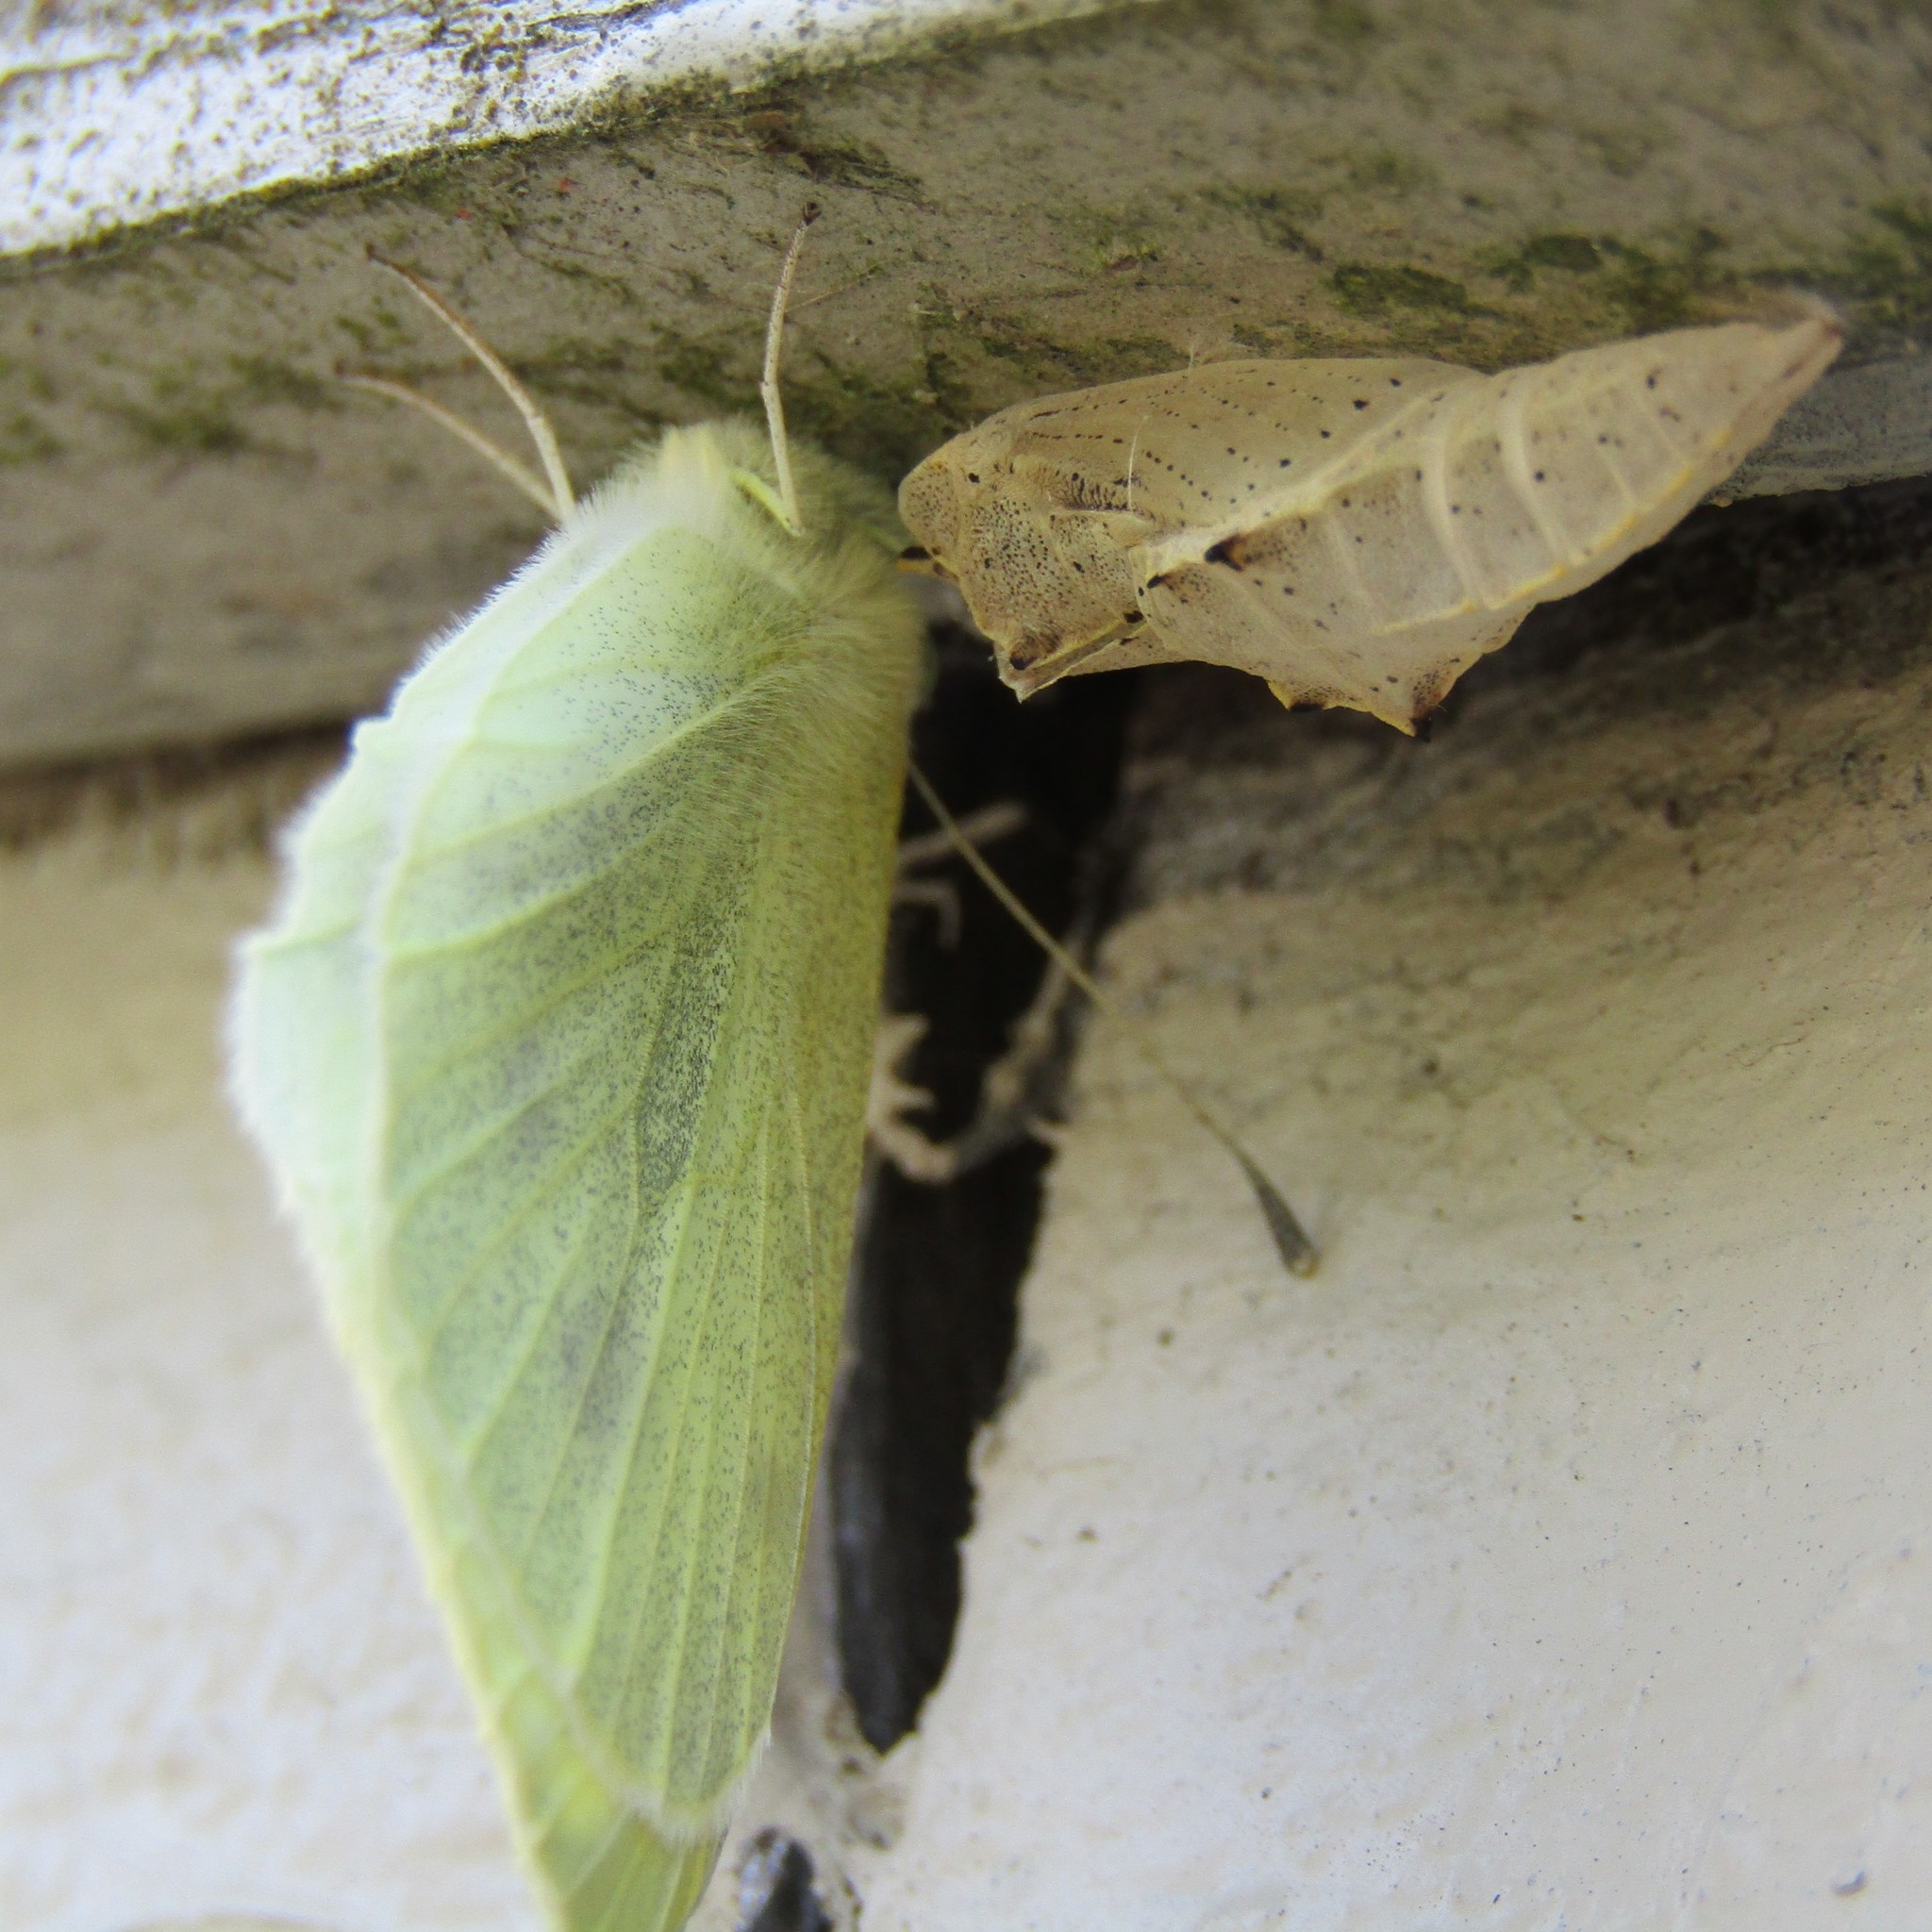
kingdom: Animalia
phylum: Arthropoda
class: Insecta
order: Lepidoptera
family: Pieridae
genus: Pieris
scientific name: Pieris rapae
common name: Small white
